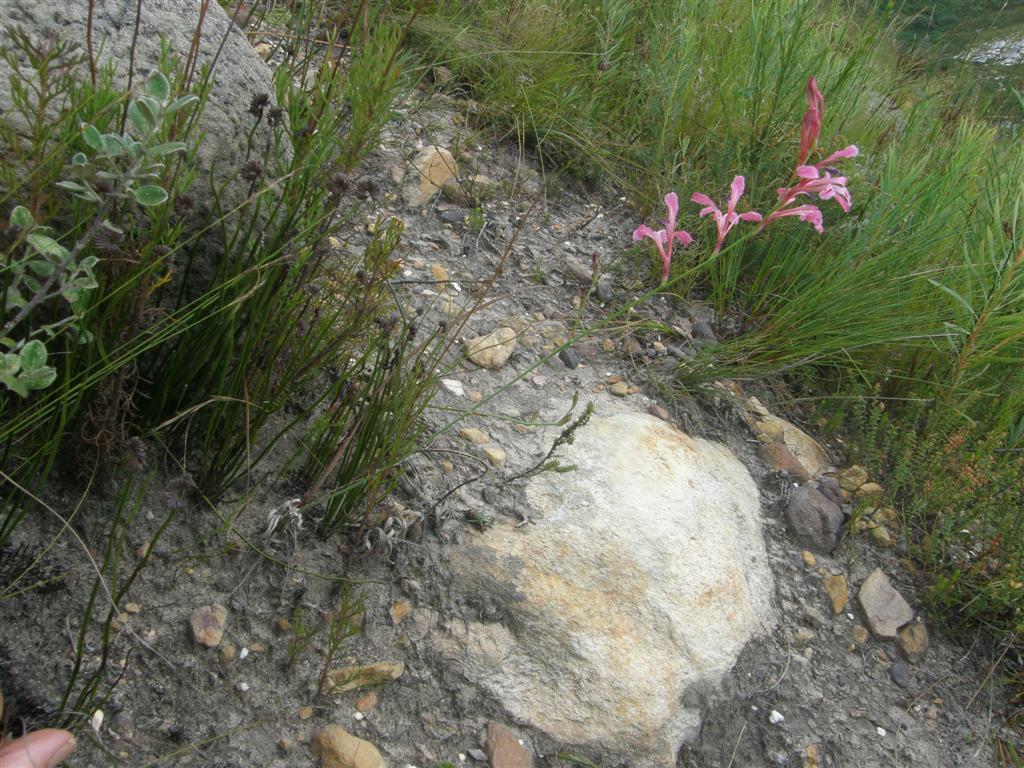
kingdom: Plantae
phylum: Tracheophyta
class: Liliopsida
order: Asparagales
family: Iridaceae
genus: Tritoniopsis
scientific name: Tritoniopsis ramosa
